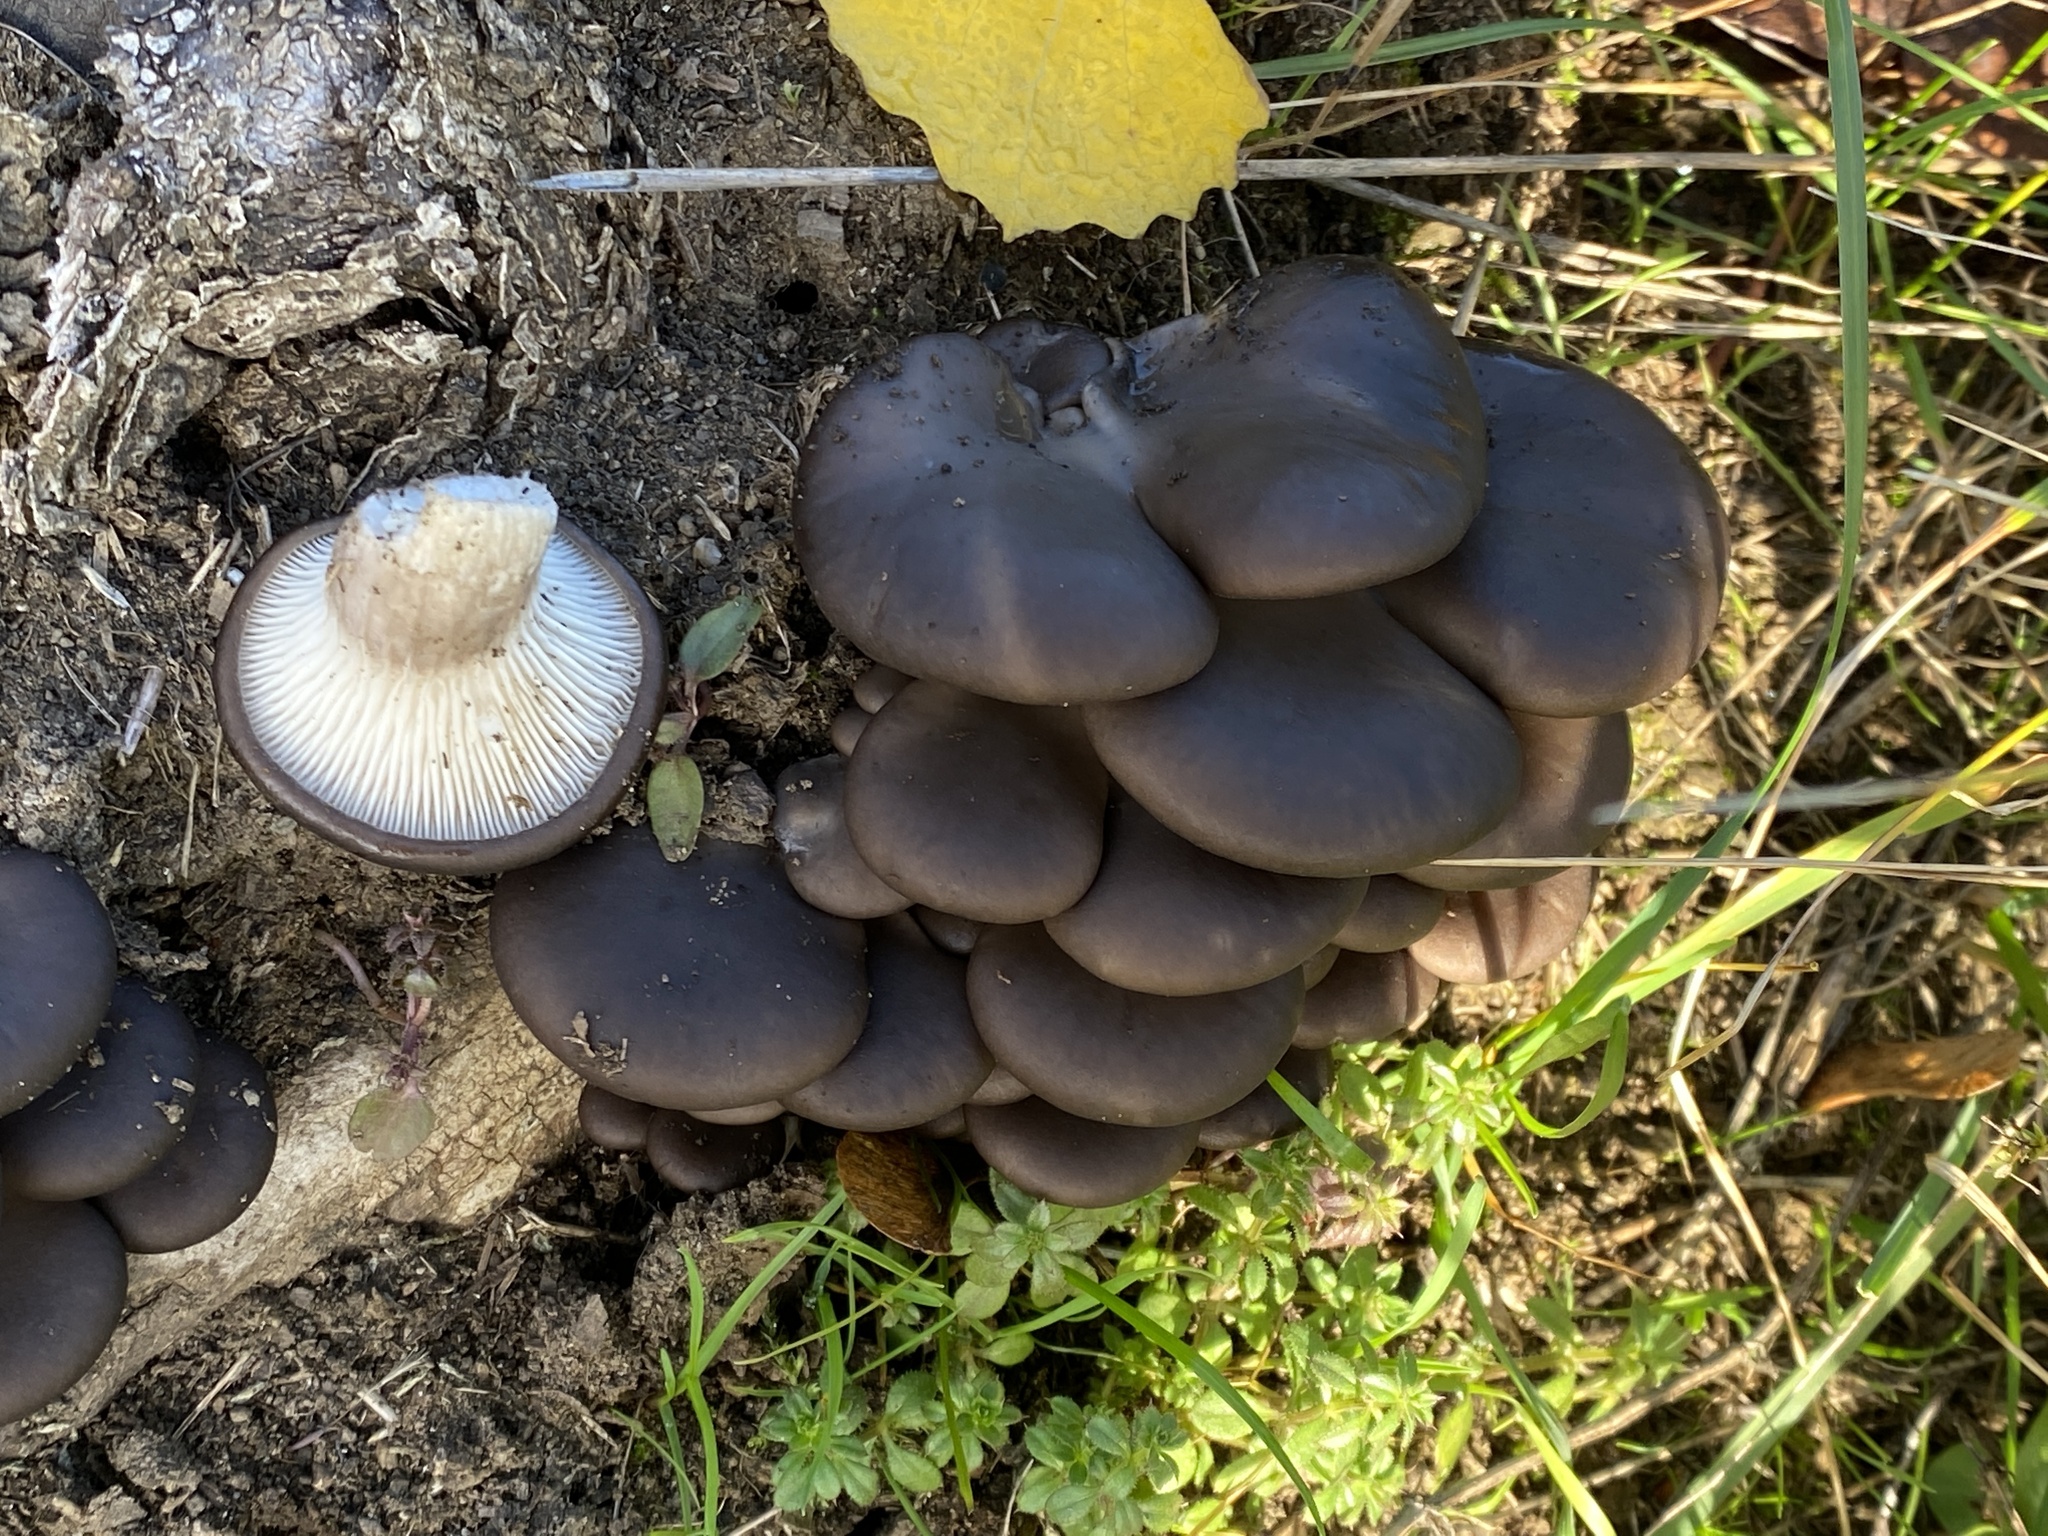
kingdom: Fungi
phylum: Basidiomycota
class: Agaricomycetes
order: Agaricales
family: Pleurotaceae
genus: Pleurotus
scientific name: Pleurotus ostreatus
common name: Oyster mushroom
